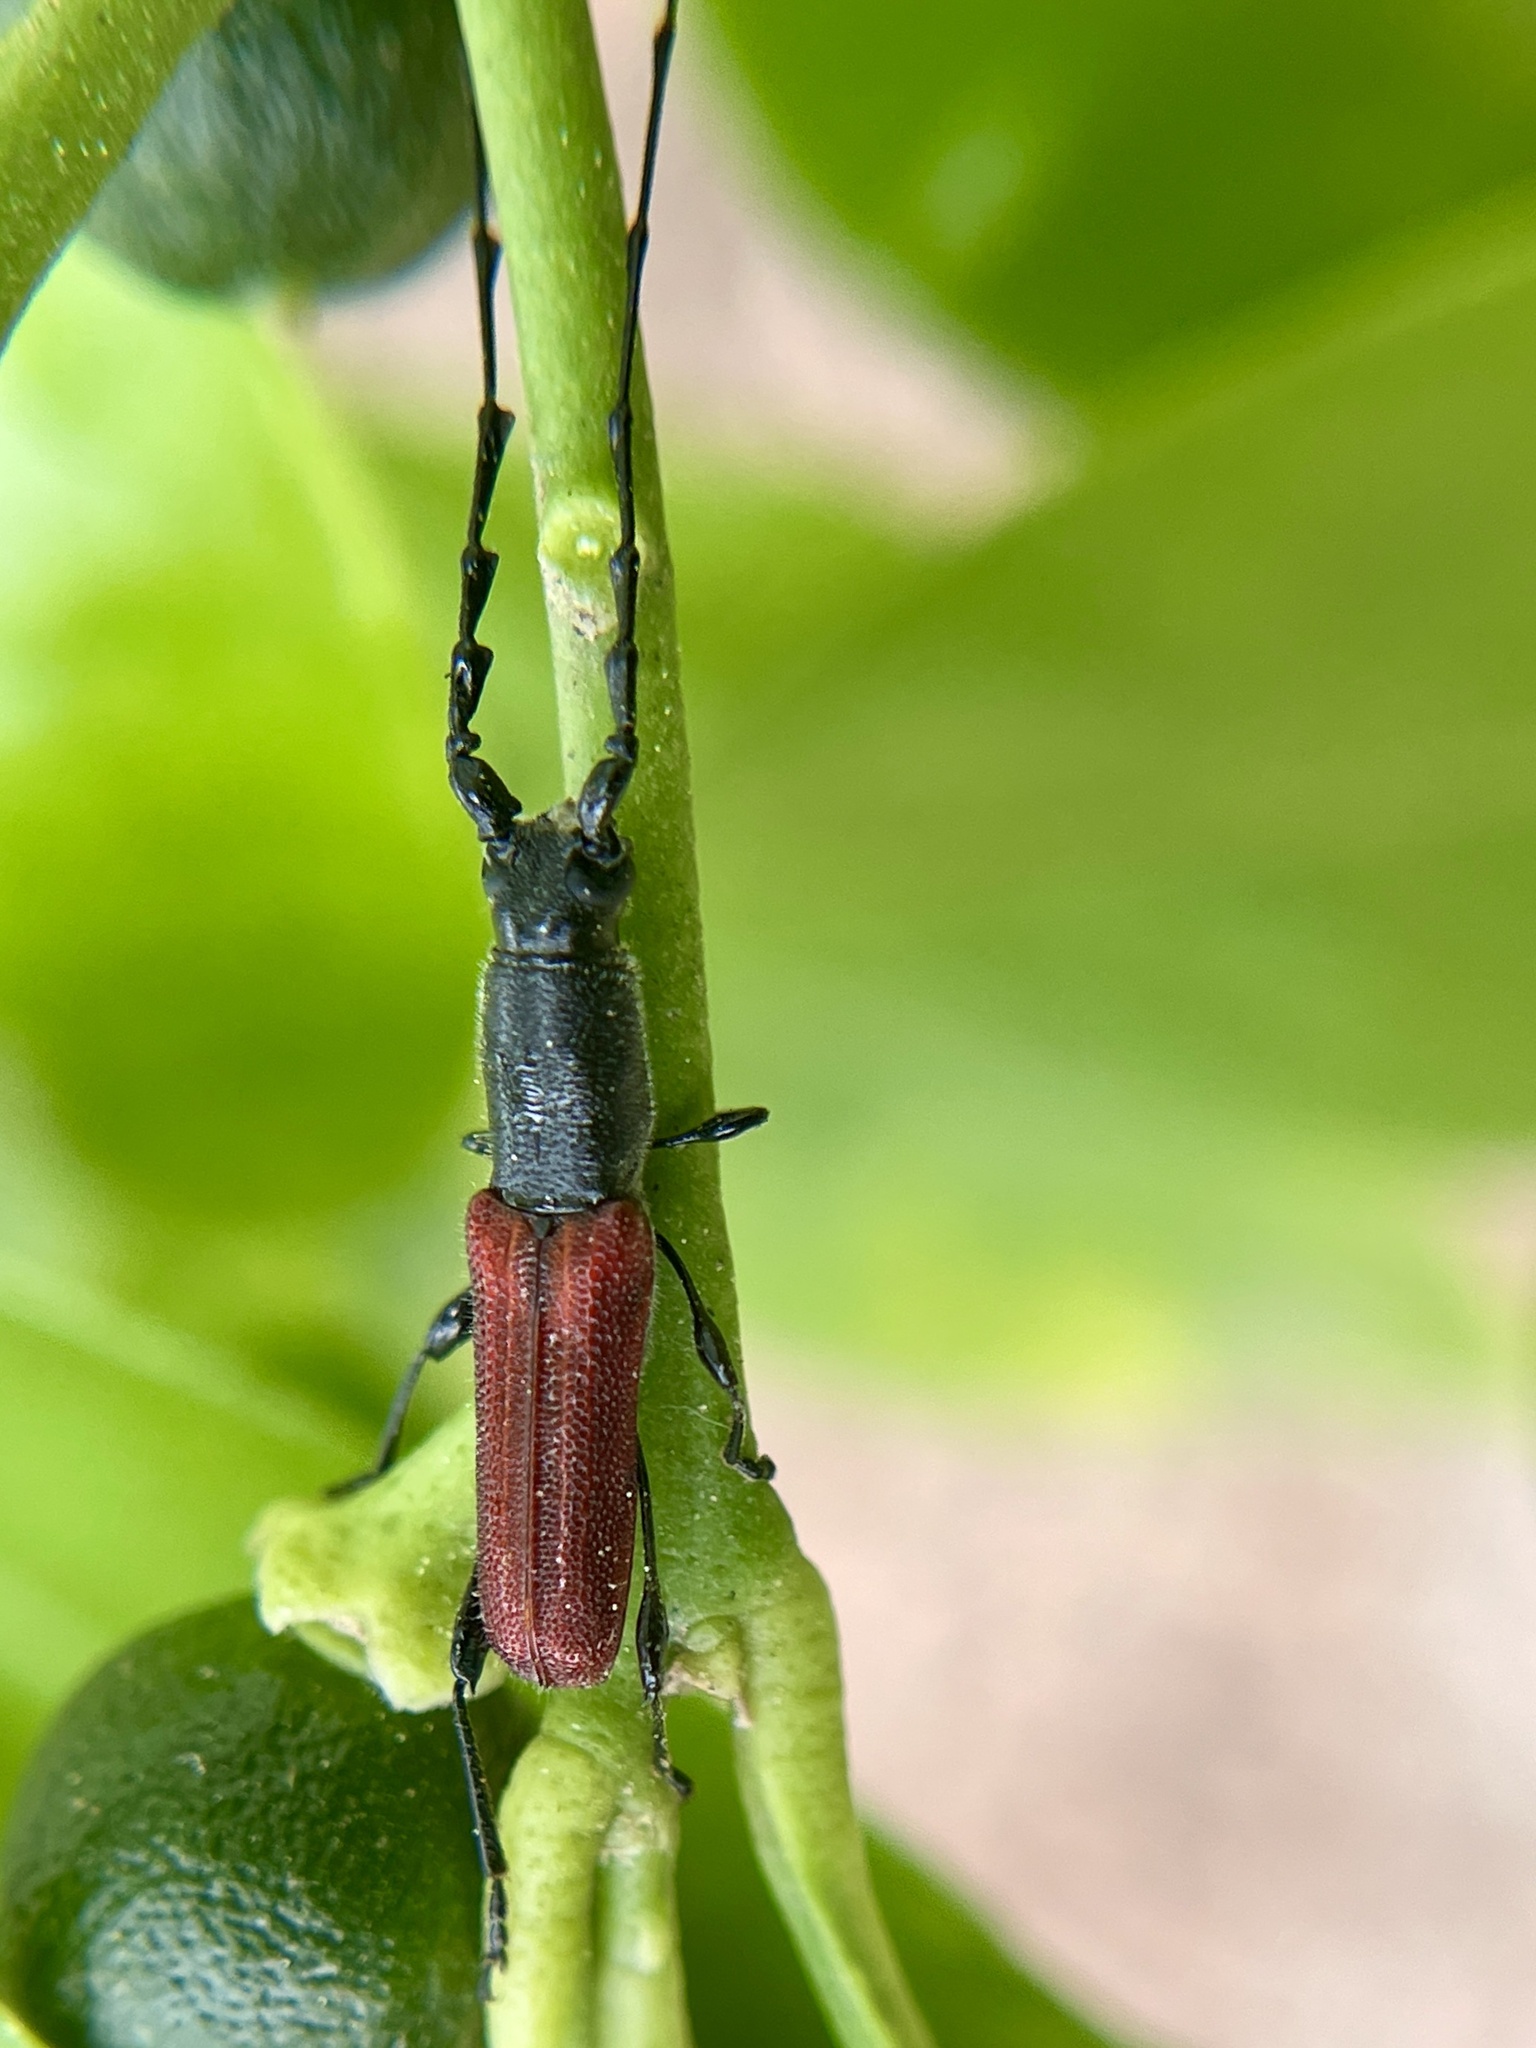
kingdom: Animalia
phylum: Arthropoda
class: Insecta
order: Coleoptera
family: Cerambycidae
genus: Ancylocera
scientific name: Ancylocera bicolor
